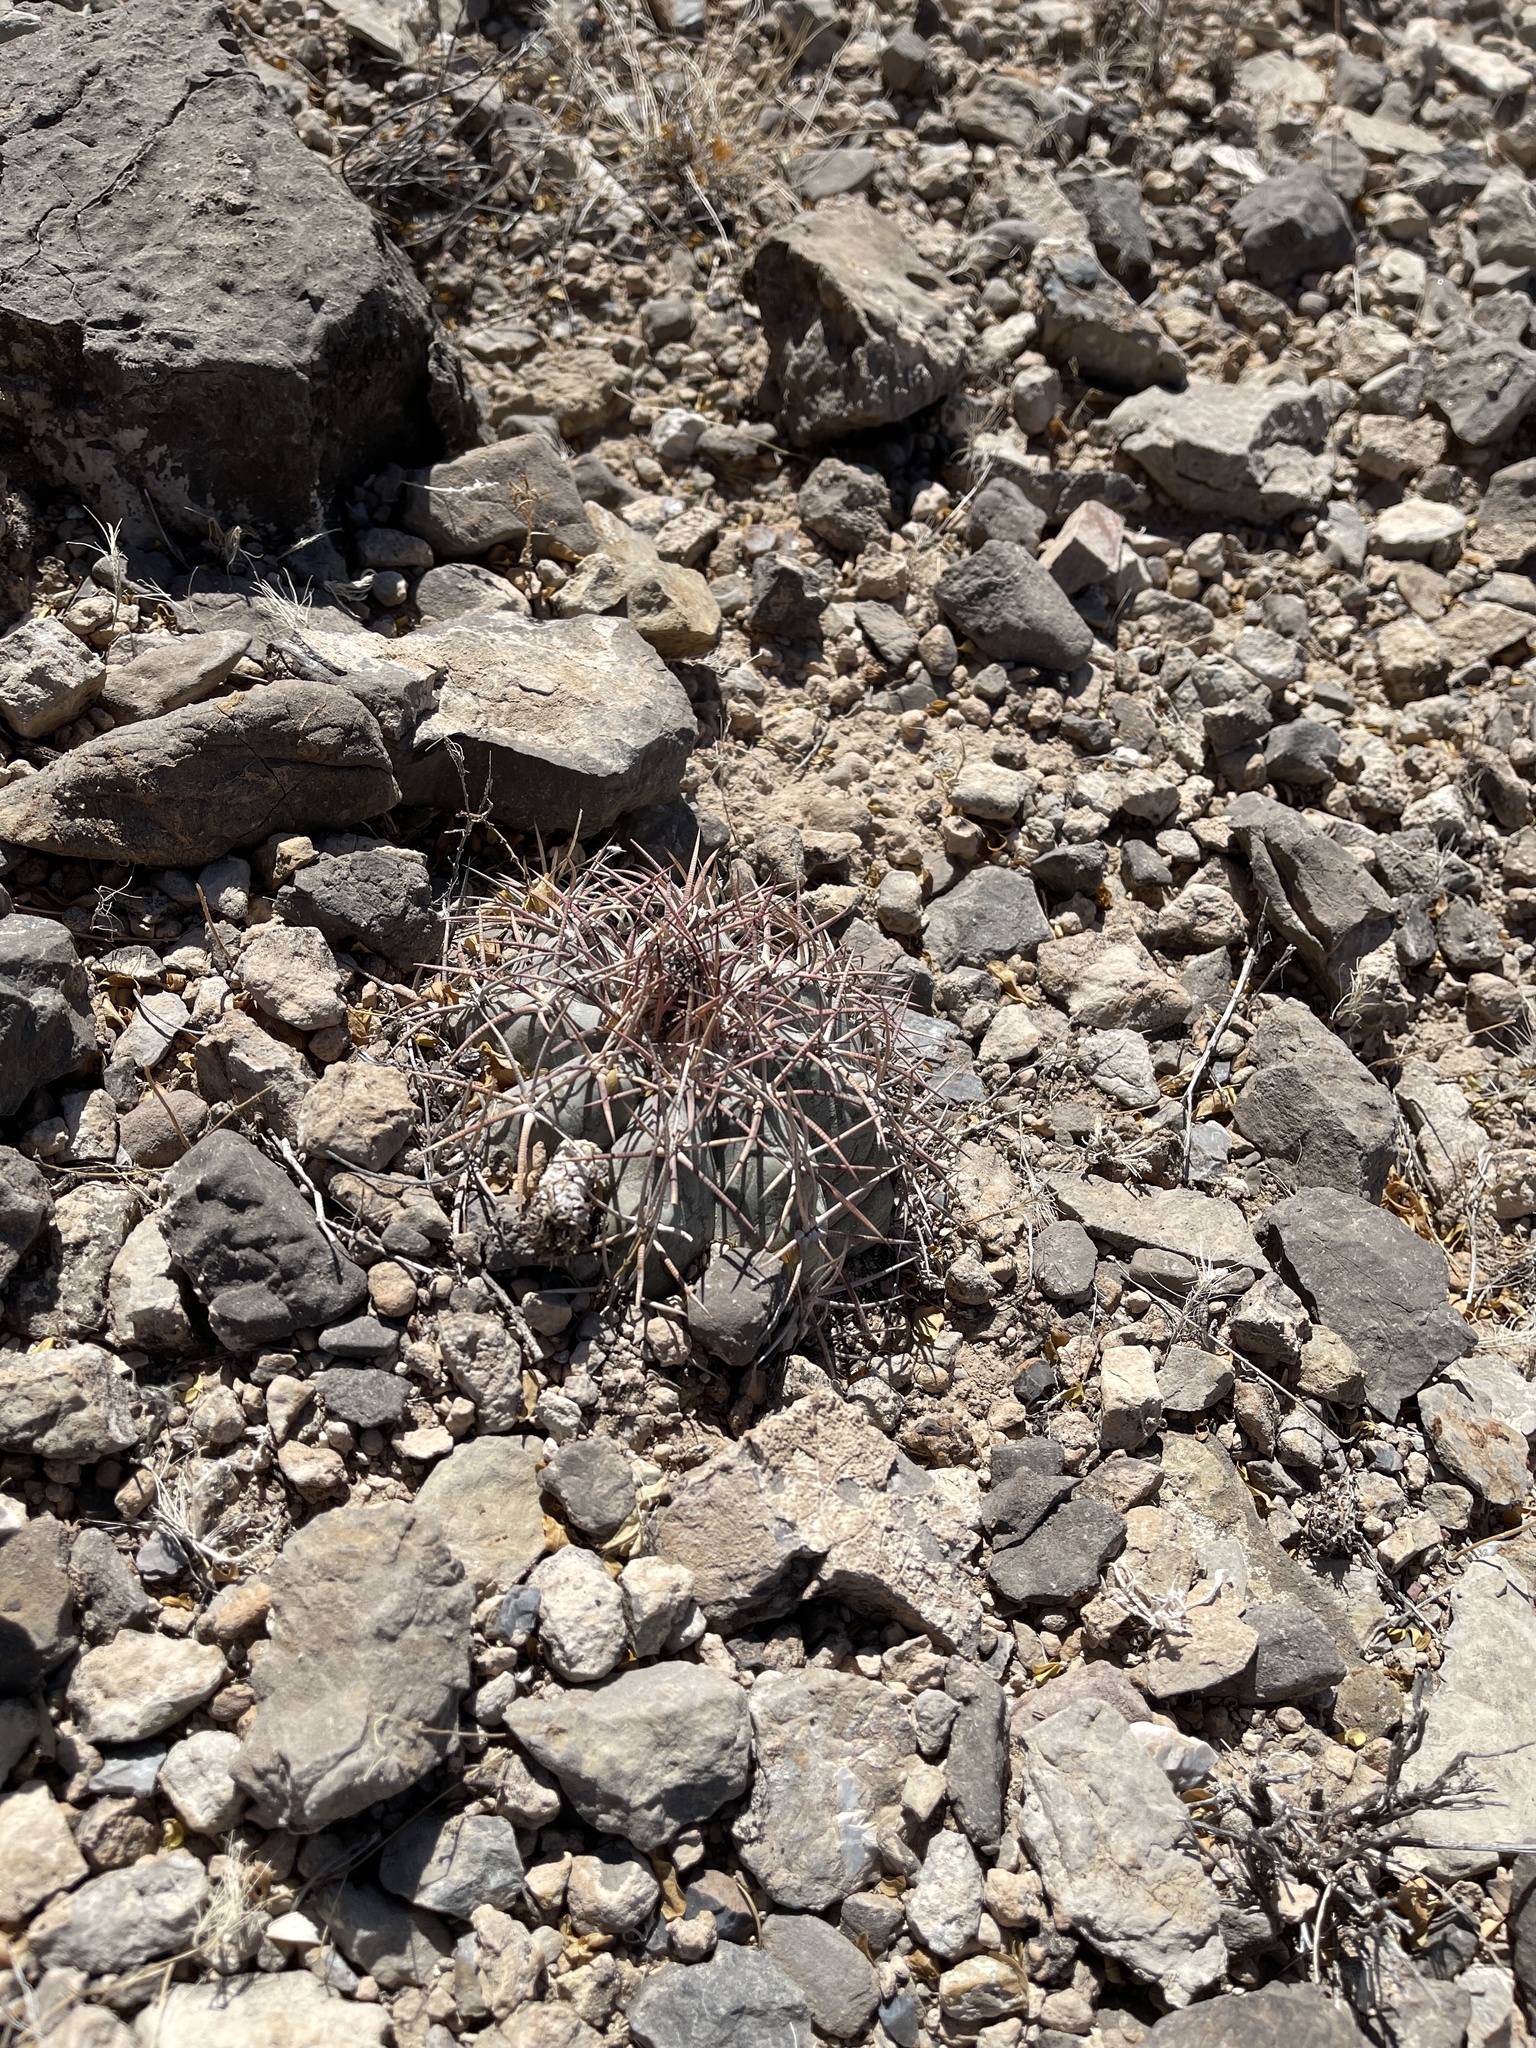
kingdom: Plantae
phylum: Tracheophyta
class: Magnoliopsida
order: Caryophyllales
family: Cactaceae
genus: Echinocactus
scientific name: Echinocactus horizonthalonius
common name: Devilshead
